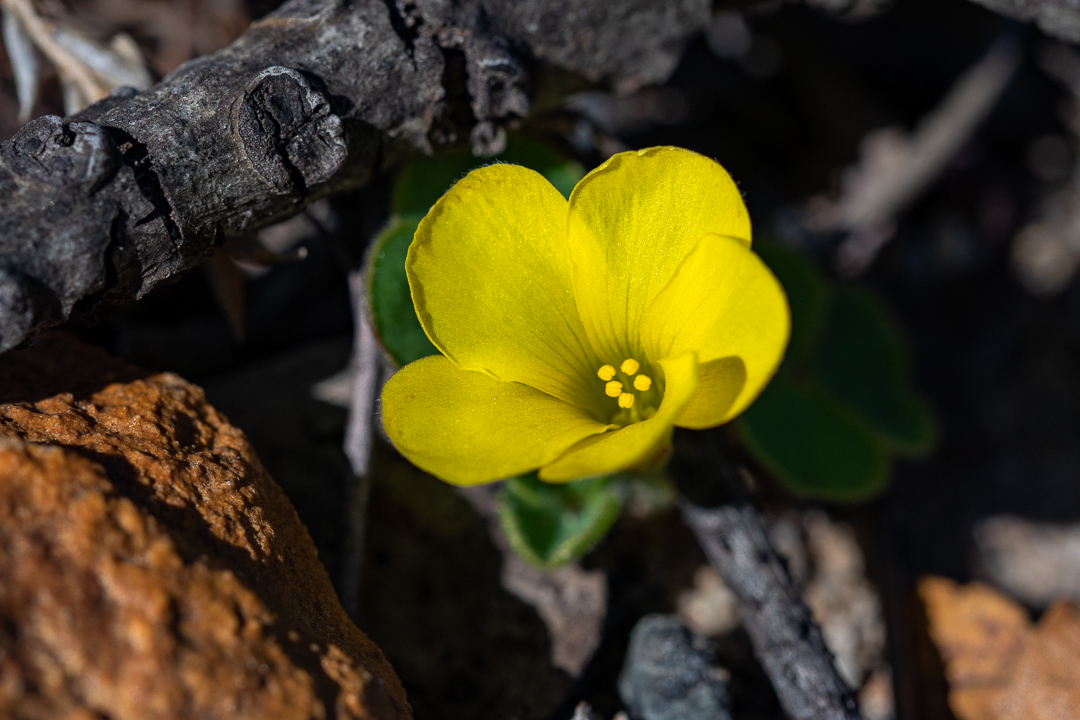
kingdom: Plantae
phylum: Tracheophyta
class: Magnoliopsida
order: Oxalidales
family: Oxalidaceae
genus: Oxalis
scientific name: Oxalis luteola
